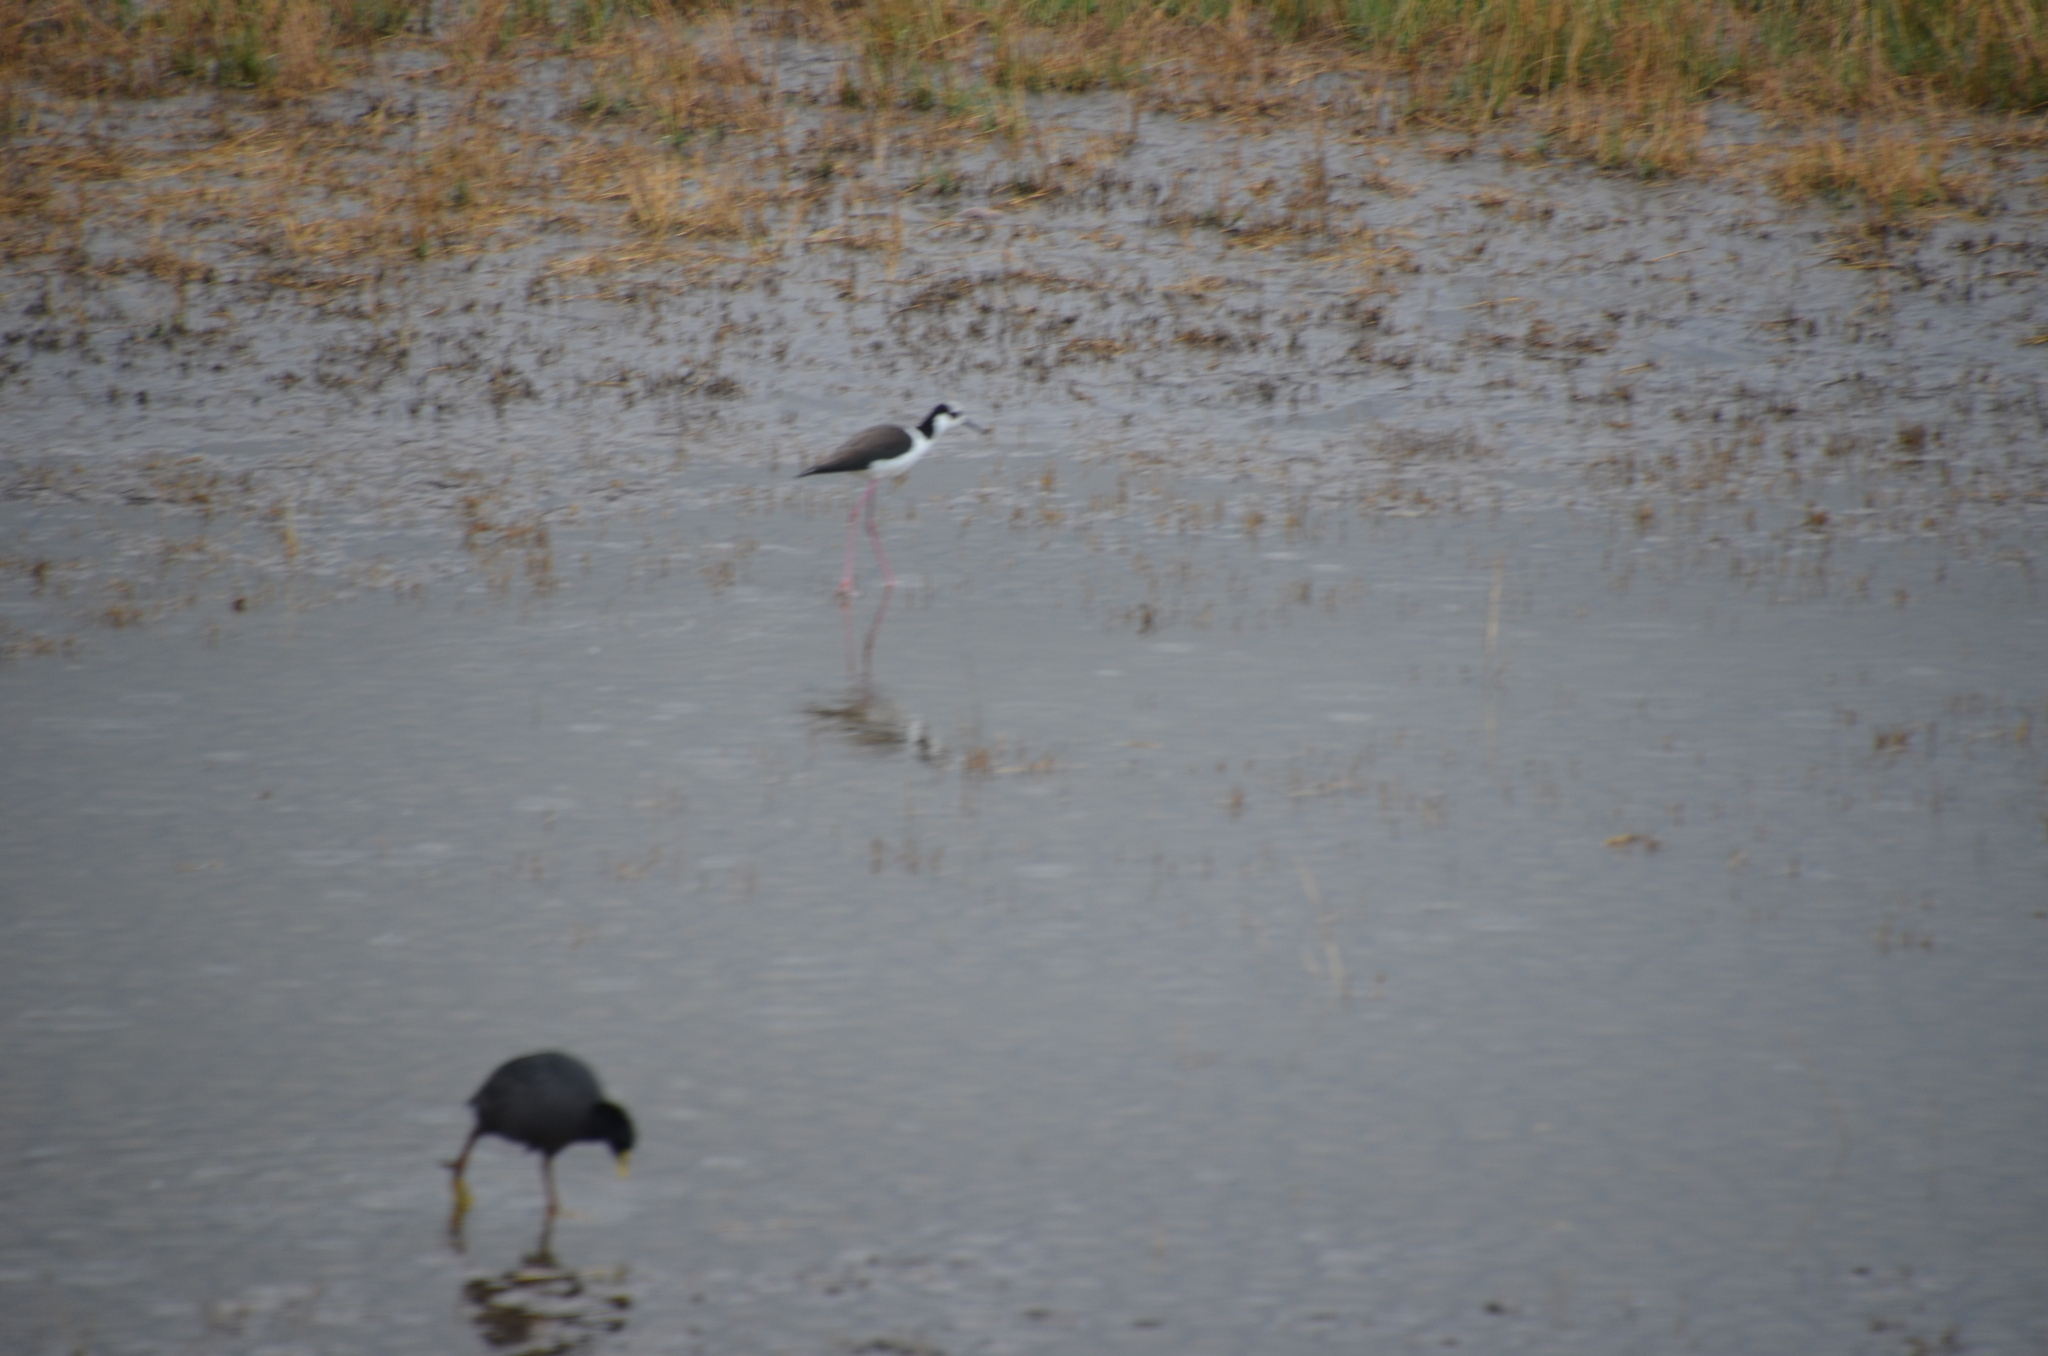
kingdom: Animalia
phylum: Chordata
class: Aves
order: Charadriiformes
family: Recurvirostridae
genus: Himantopus
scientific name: Himantopus mexicanus
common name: Black-necked stilt
